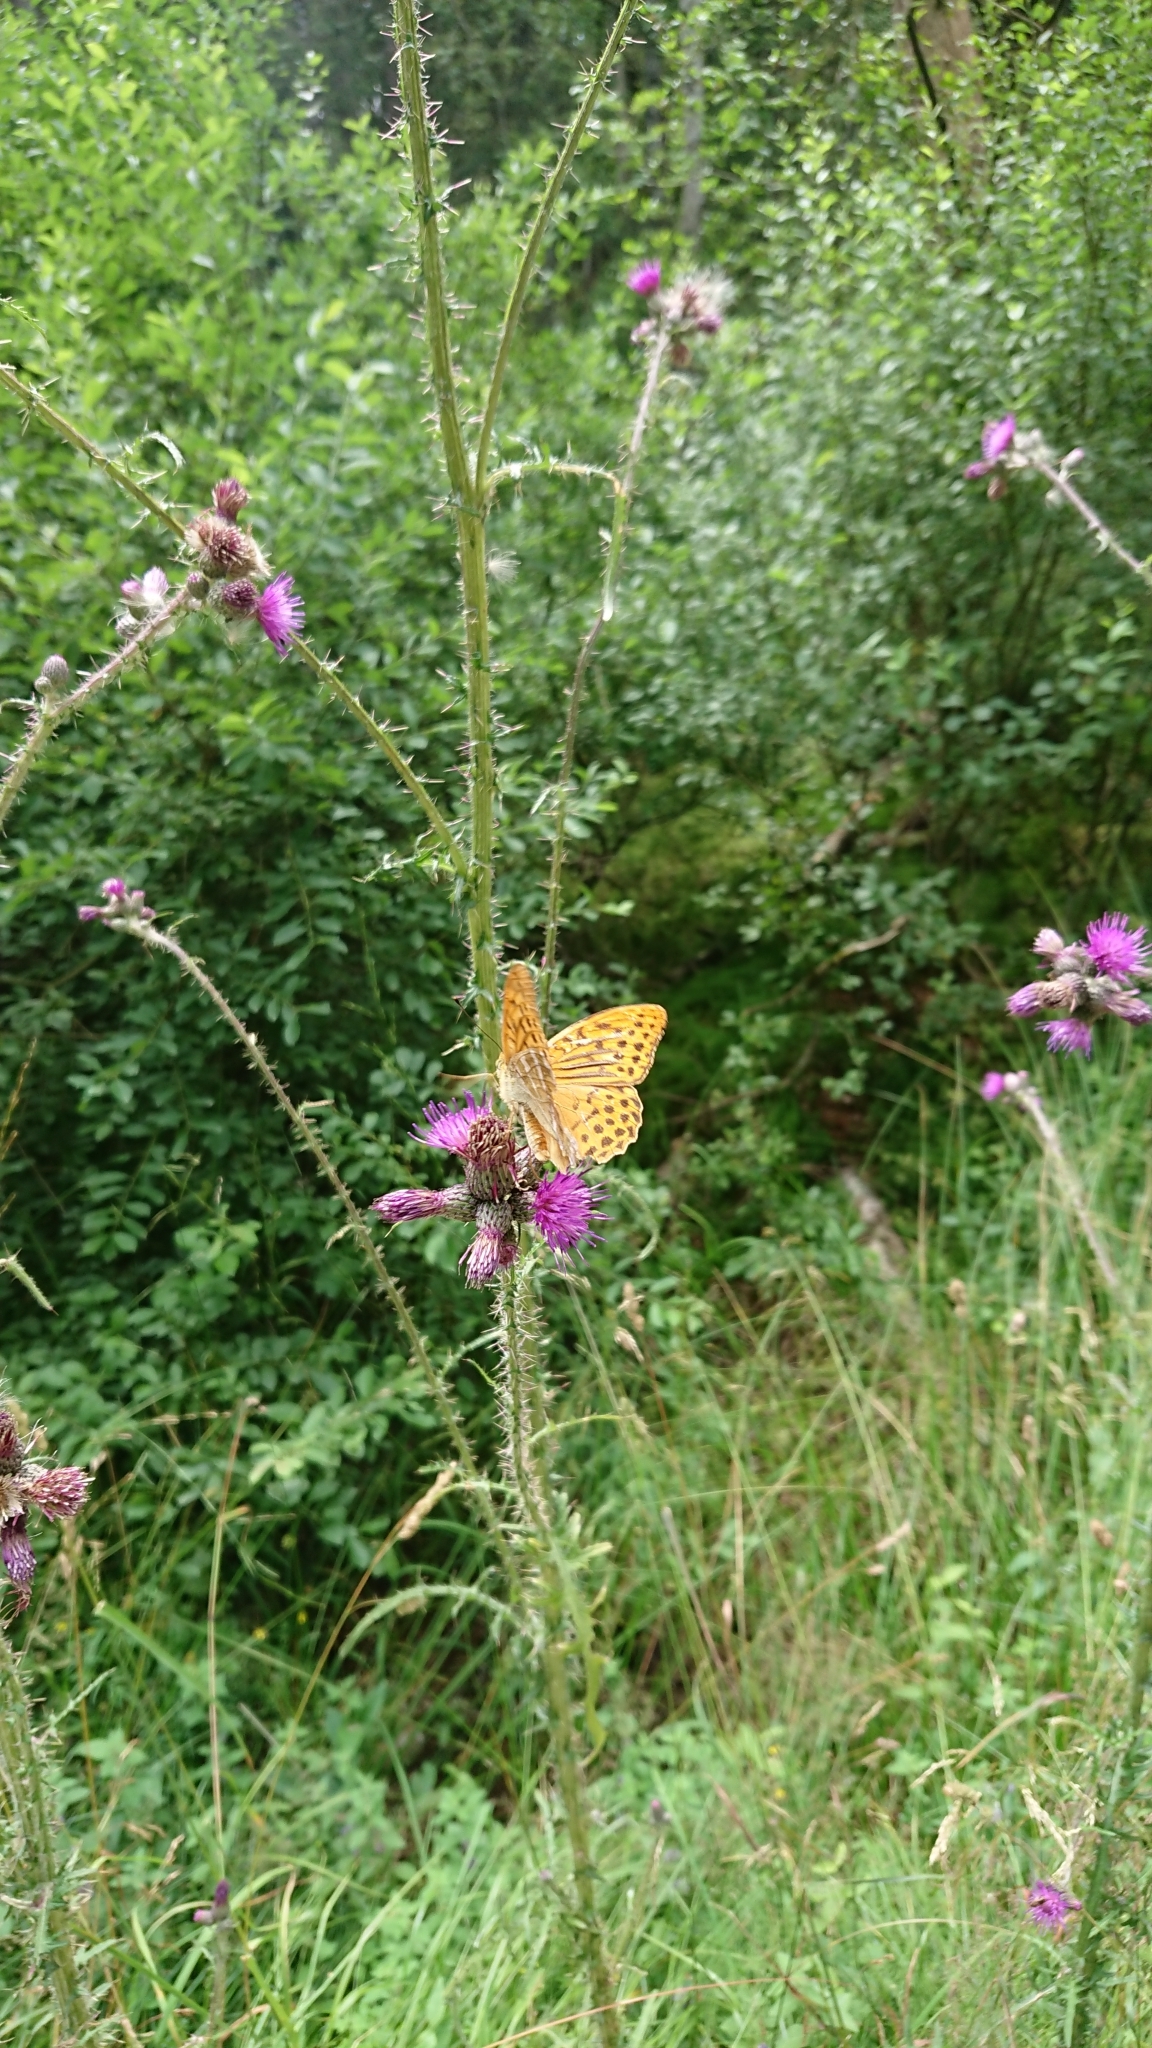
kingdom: Animalia
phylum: Arthropoda
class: Insecta
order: Lepidoptera
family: Nymphalidae
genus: Argynnis
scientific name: Argynnis paphia
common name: Silver-washed fritillary
